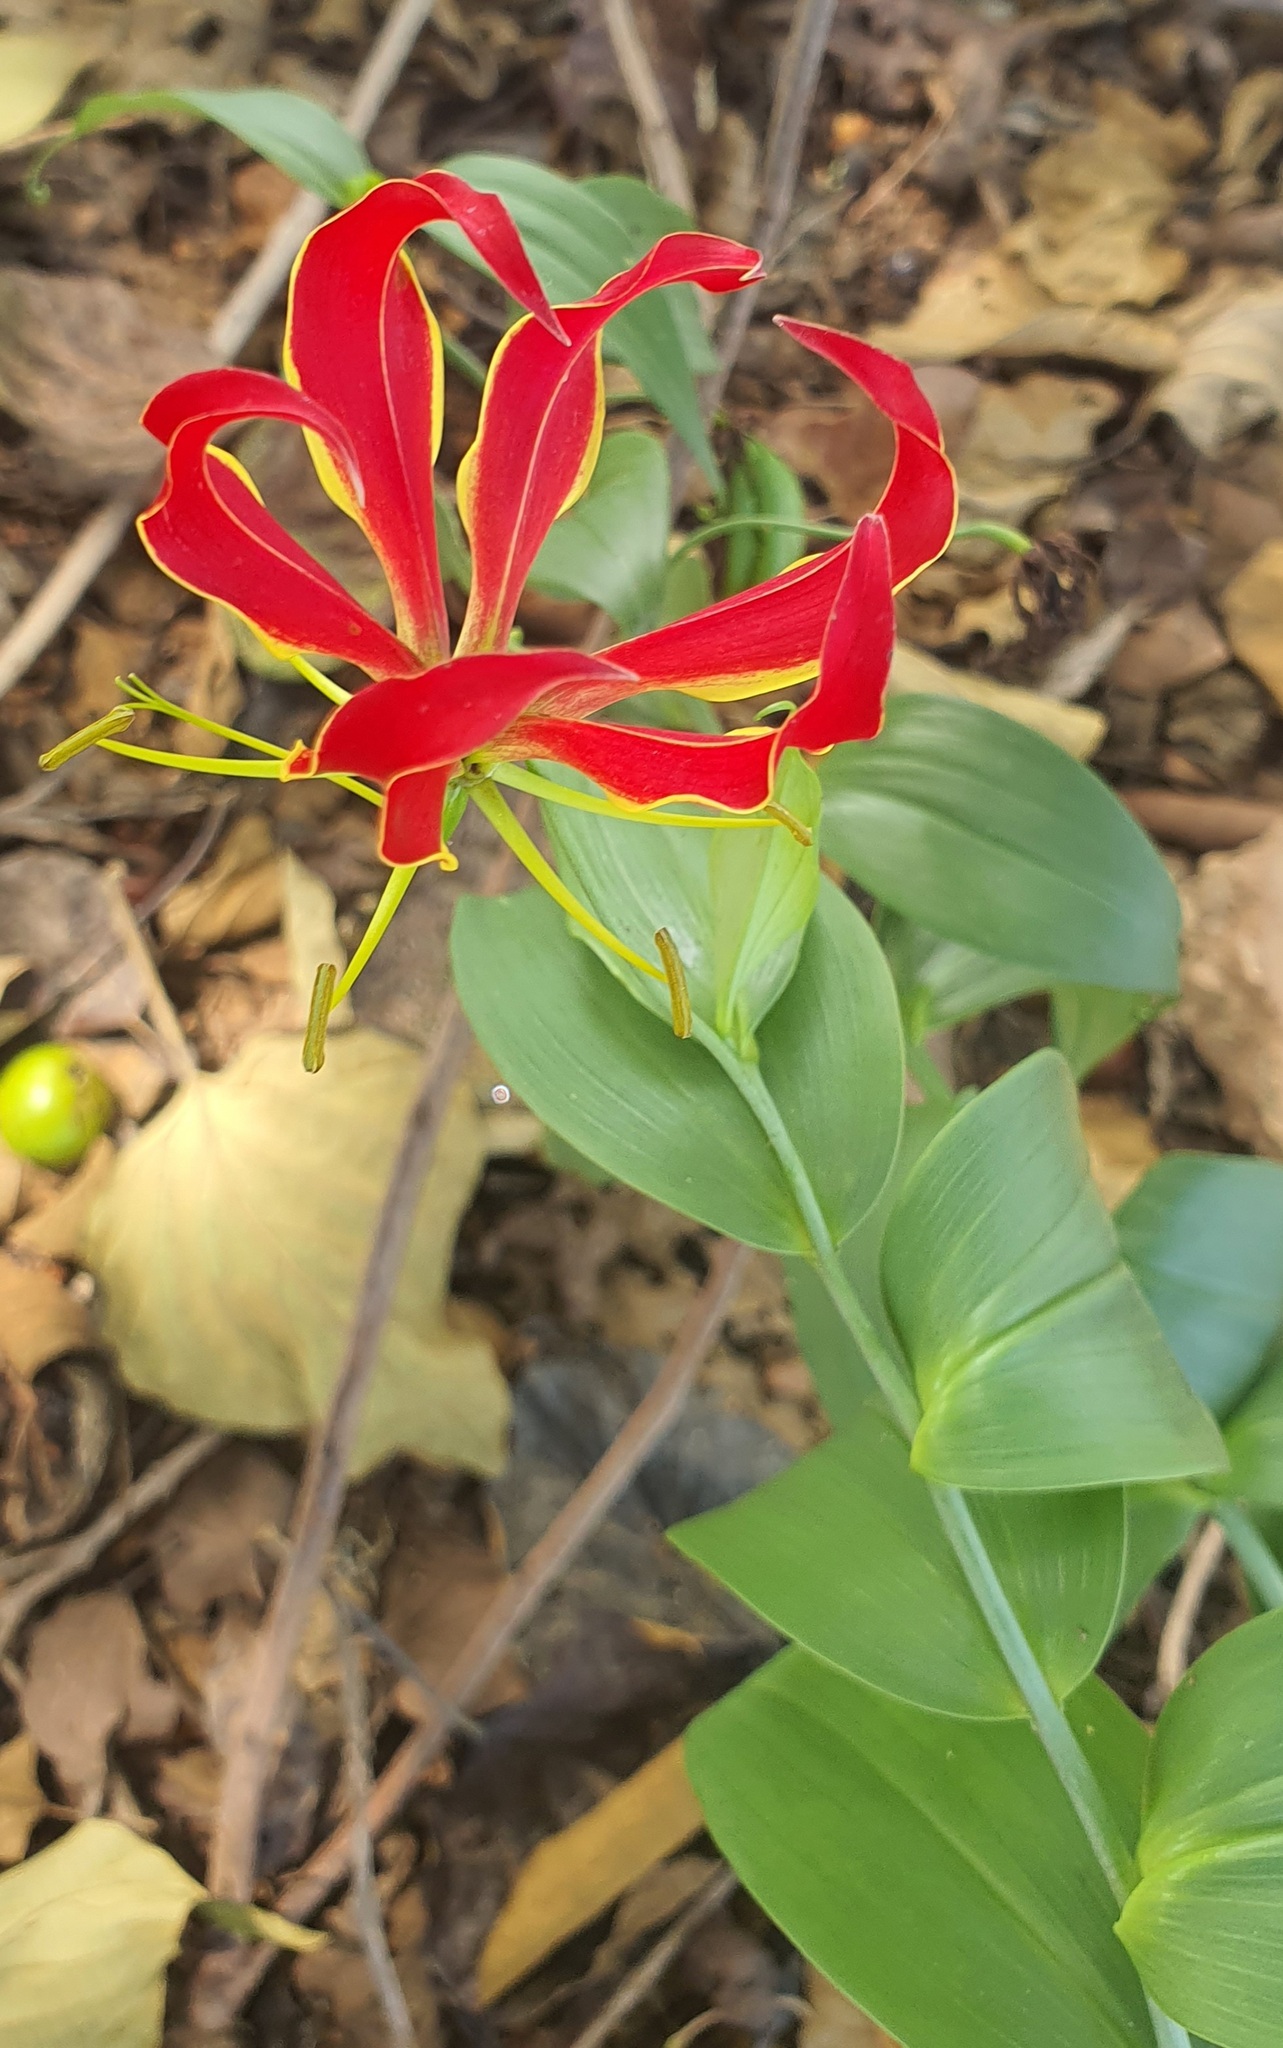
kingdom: Plantae
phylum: Tracheophyta
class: Liliopsida
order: Liliales
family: Colchicaceae
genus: Gloriosa
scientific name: Gloriosa superba
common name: Flame lily
